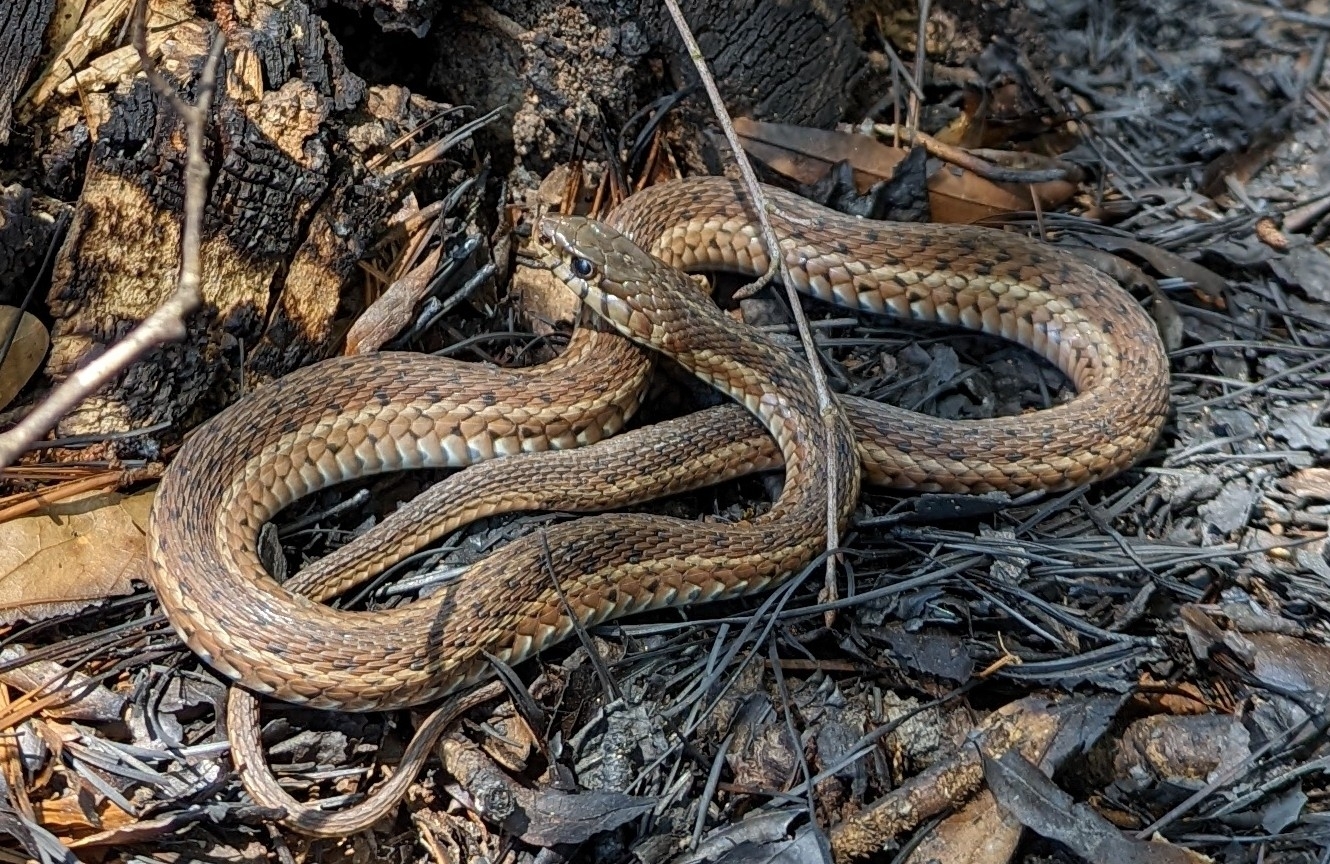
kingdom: Animalia
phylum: Chordata
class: Squamata
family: Colubridae
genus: Thamnophis
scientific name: Thamnophis sirtalis
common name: Common garter snake
